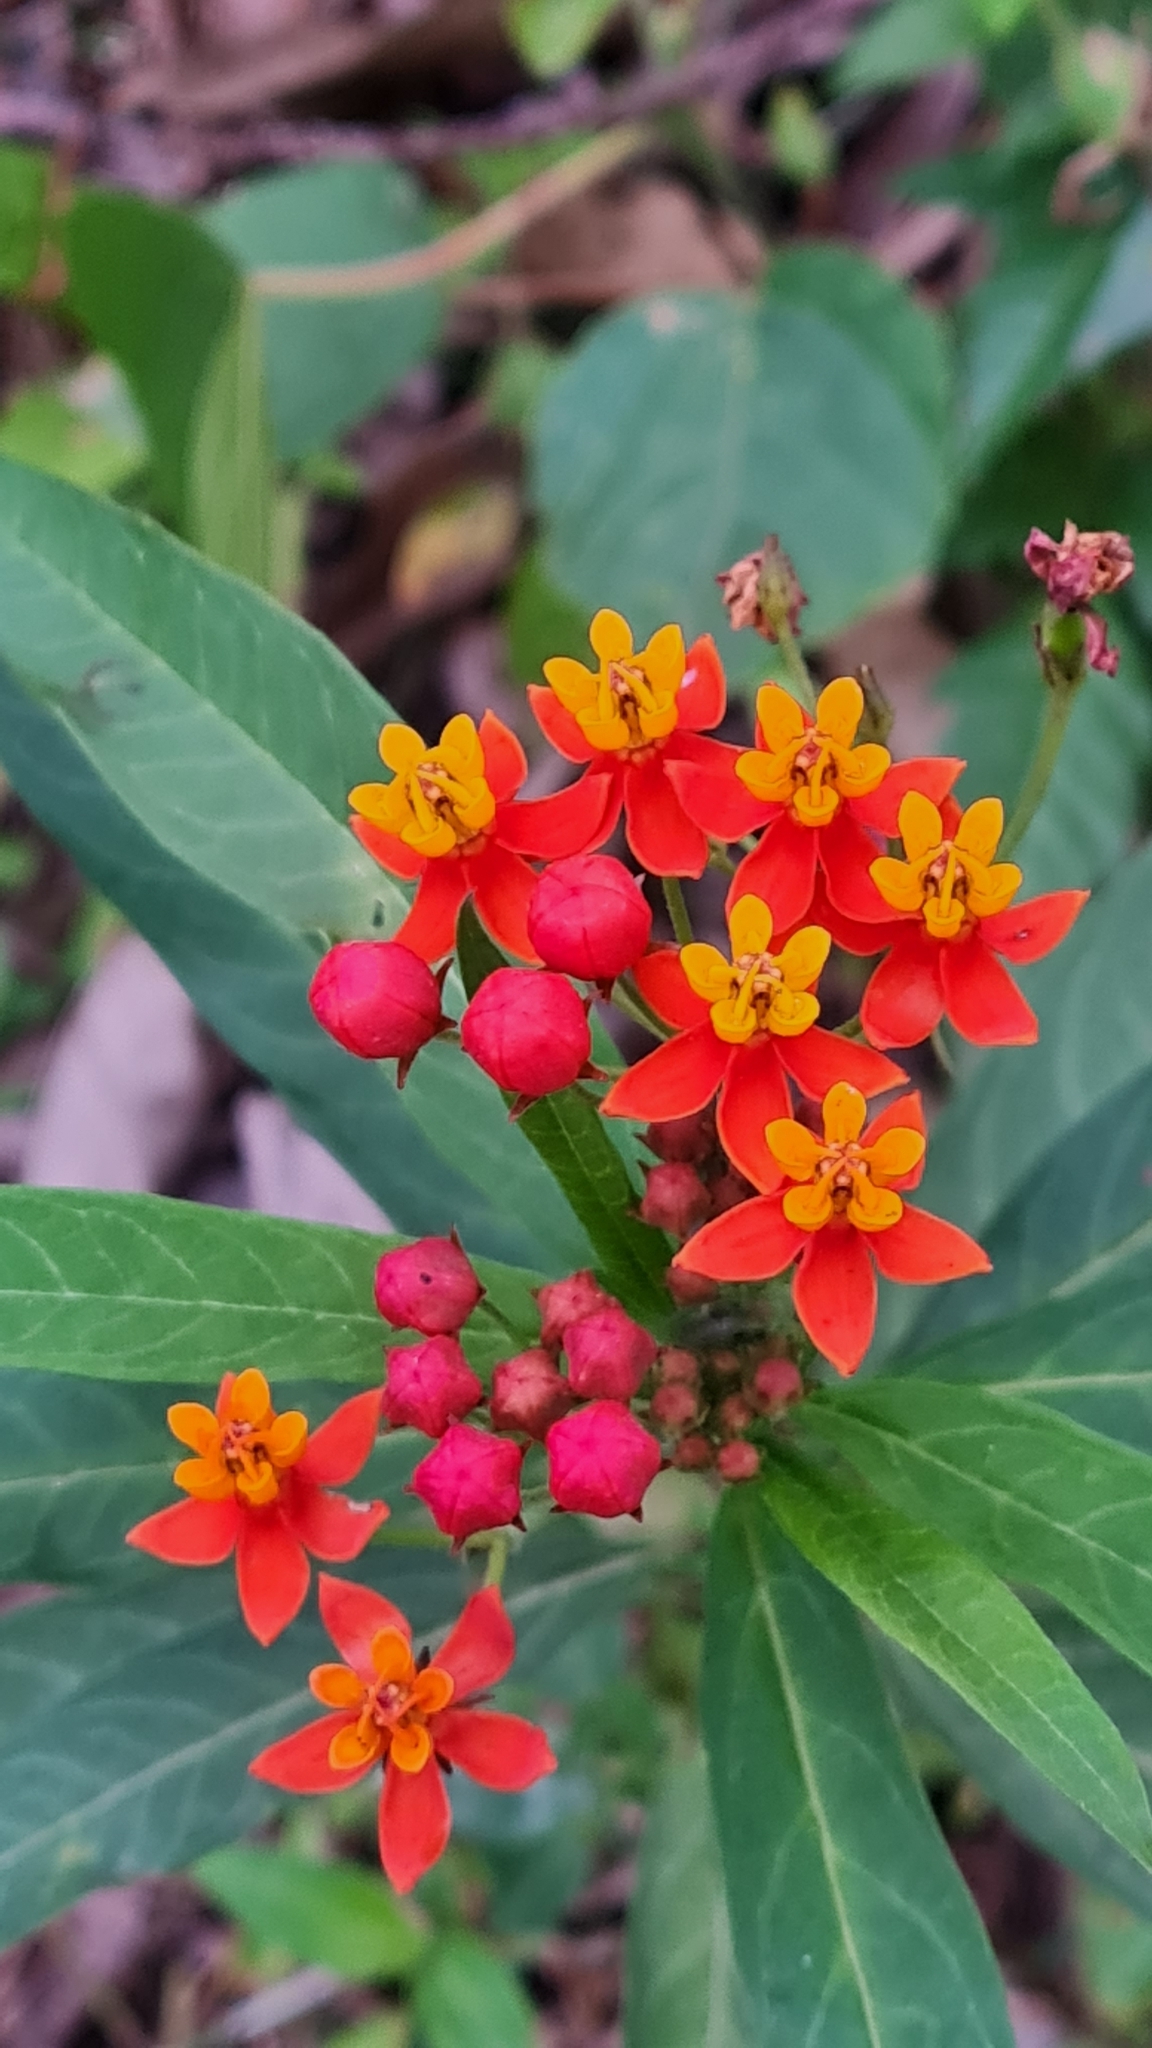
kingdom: Plantae
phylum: Tracheophyta
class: Magnoliopsida
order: Gentianales
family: Apocynaceae
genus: Asclepias
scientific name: Asclepias curassavica
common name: Bloodflower
